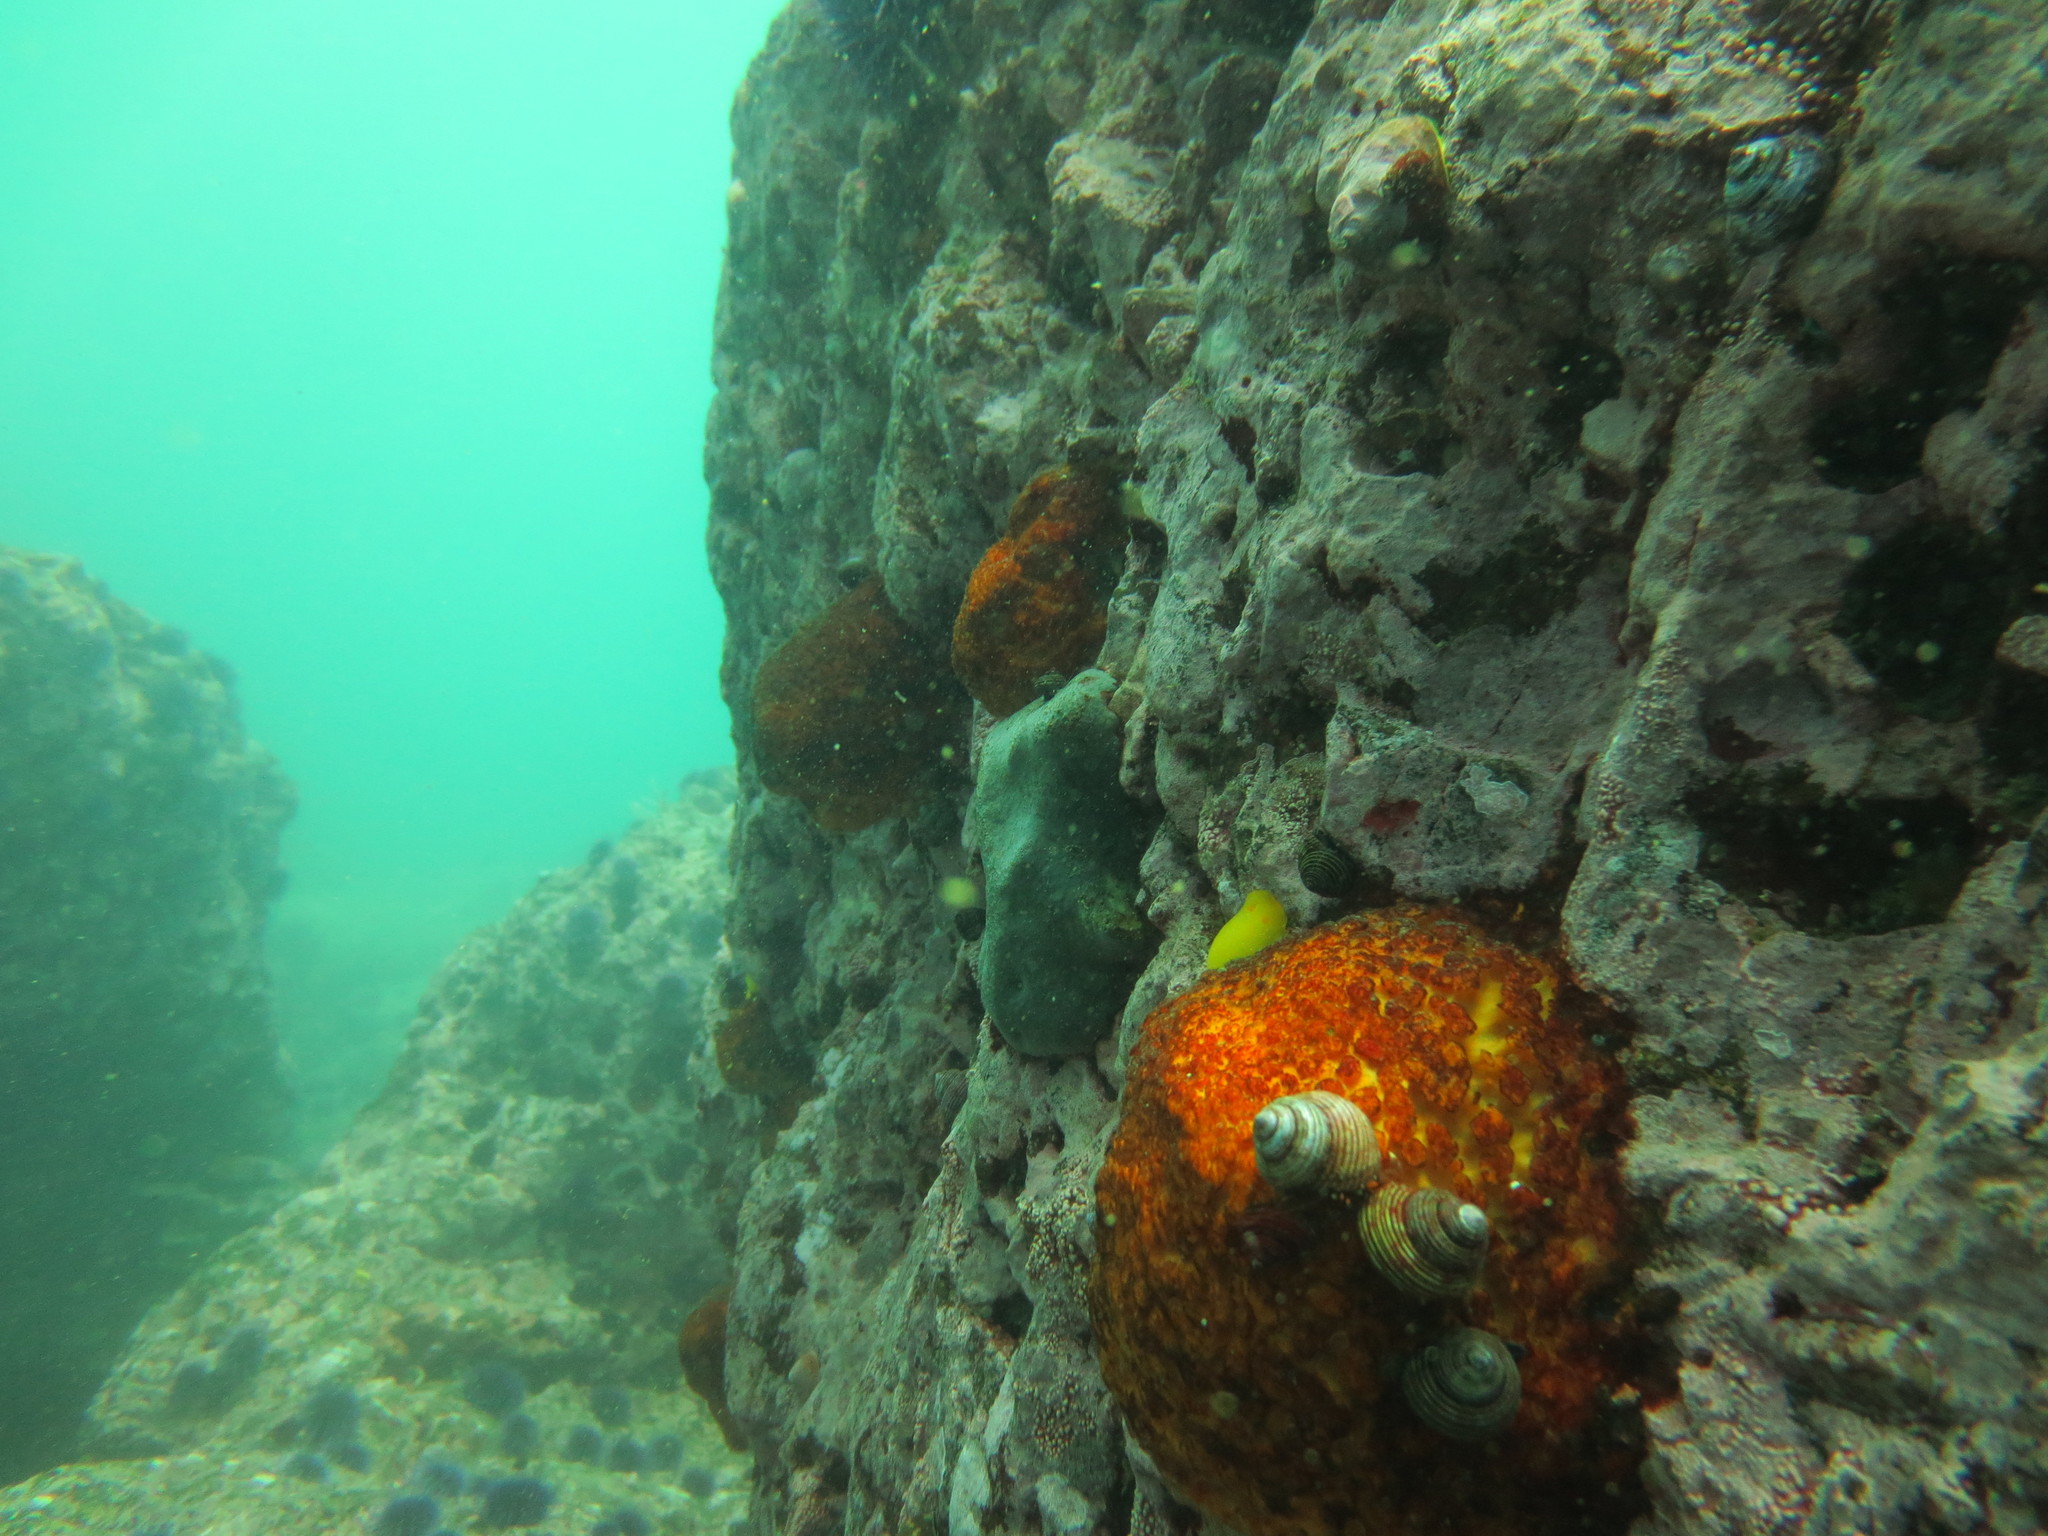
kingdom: Animalia
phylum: Mollusca
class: Gastropoda
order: Trochida
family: Calliostomatidae
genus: Calliostoma
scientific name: Calliostoma ligatum
